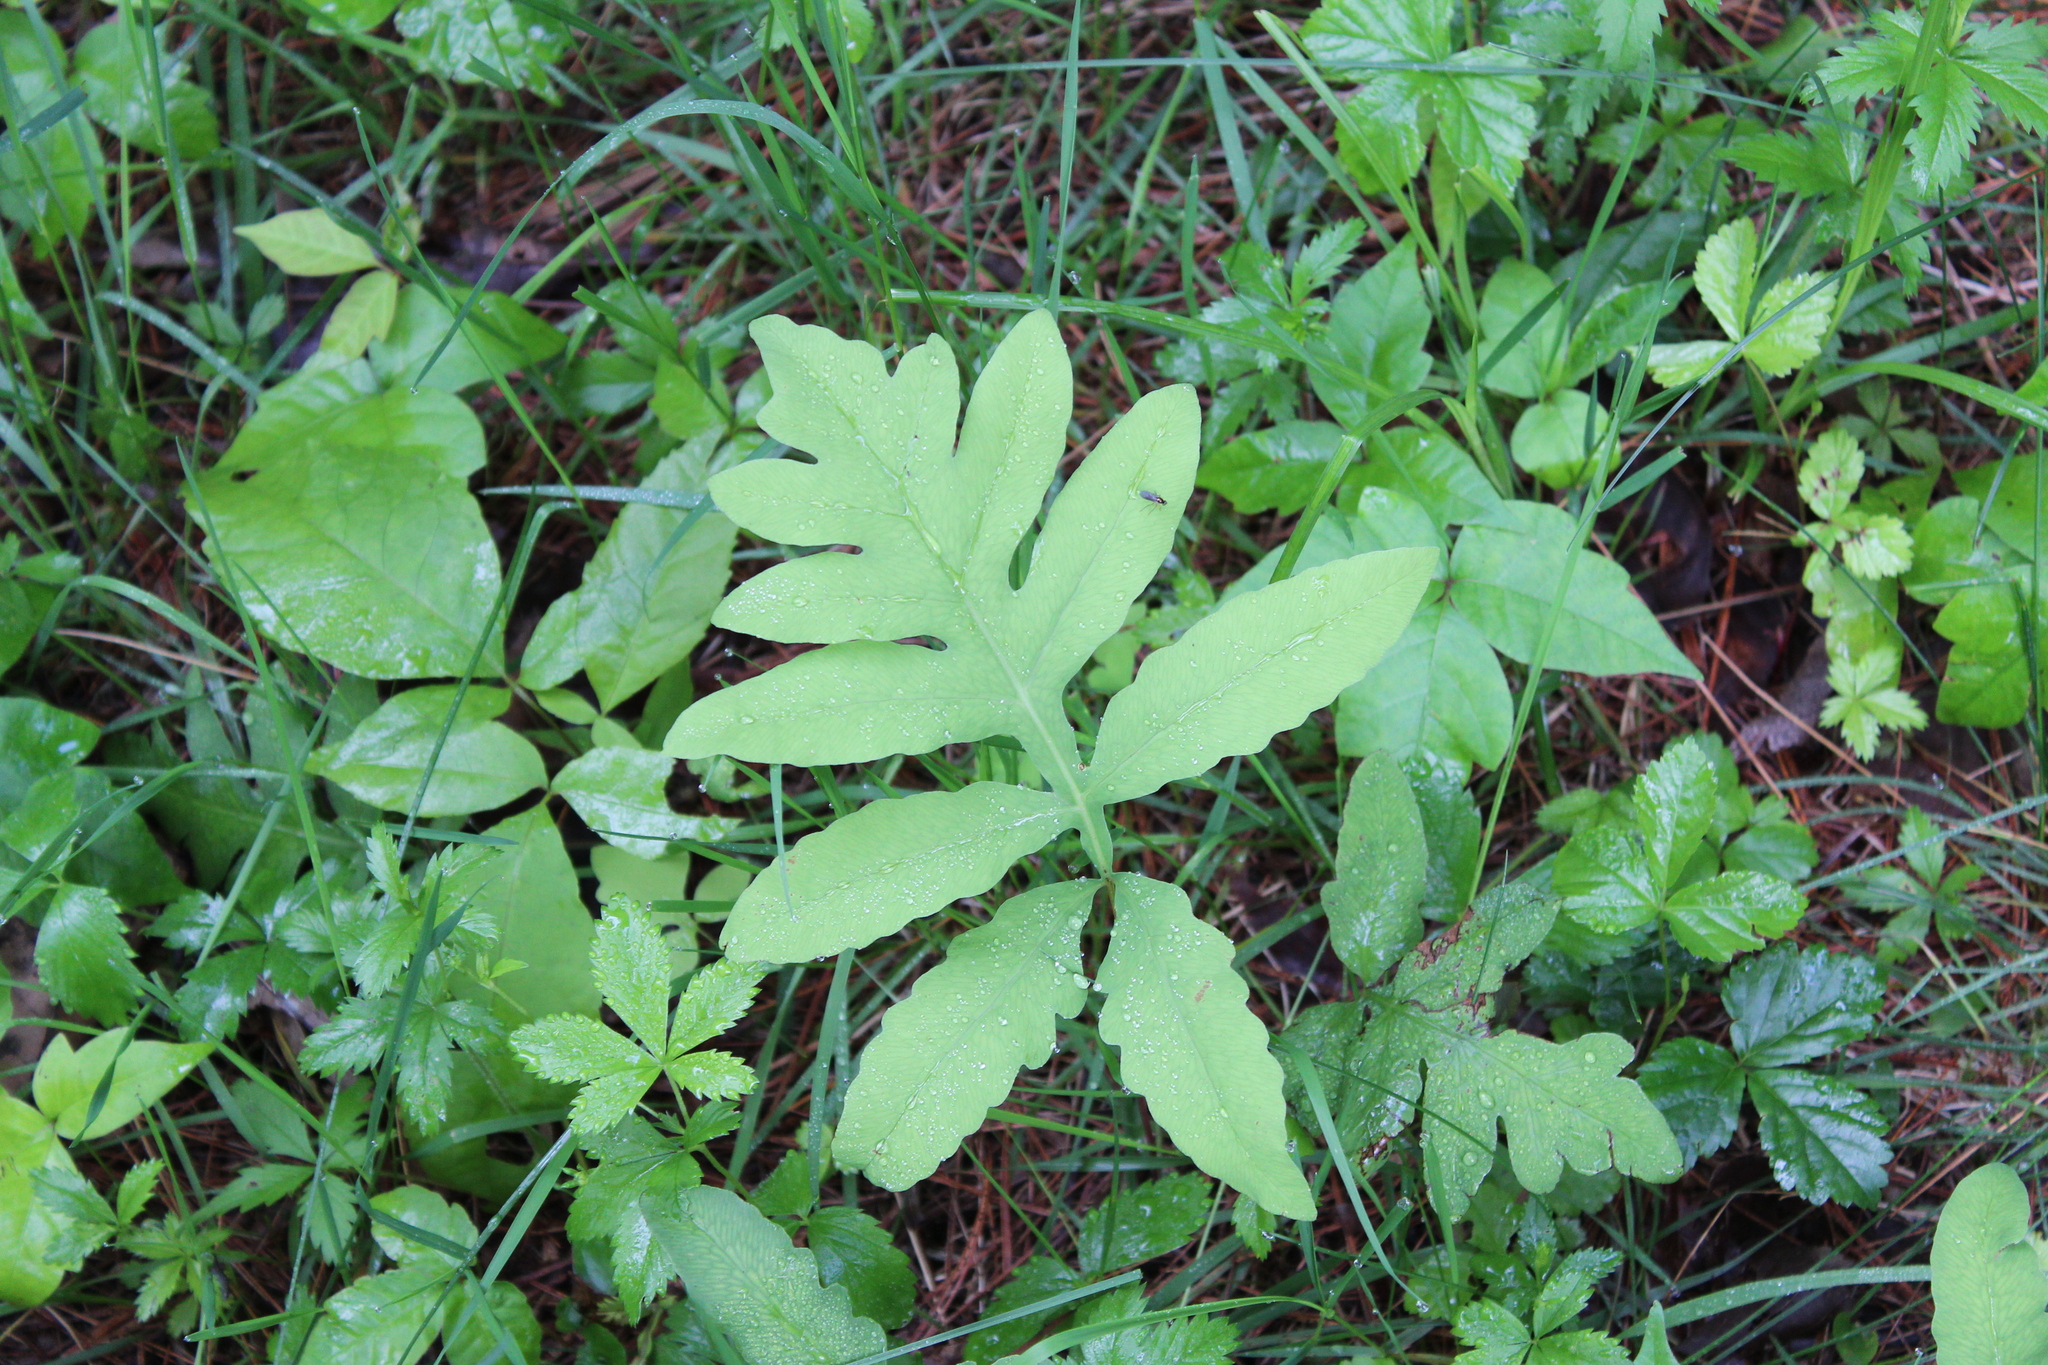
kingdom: Plantae
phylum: Tracheophyta
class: Polypodiopsida
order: Polypodiales
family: Onocleaceae
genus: Onoclea
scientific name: Onoclea sensibilis
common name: Sensitive fern
